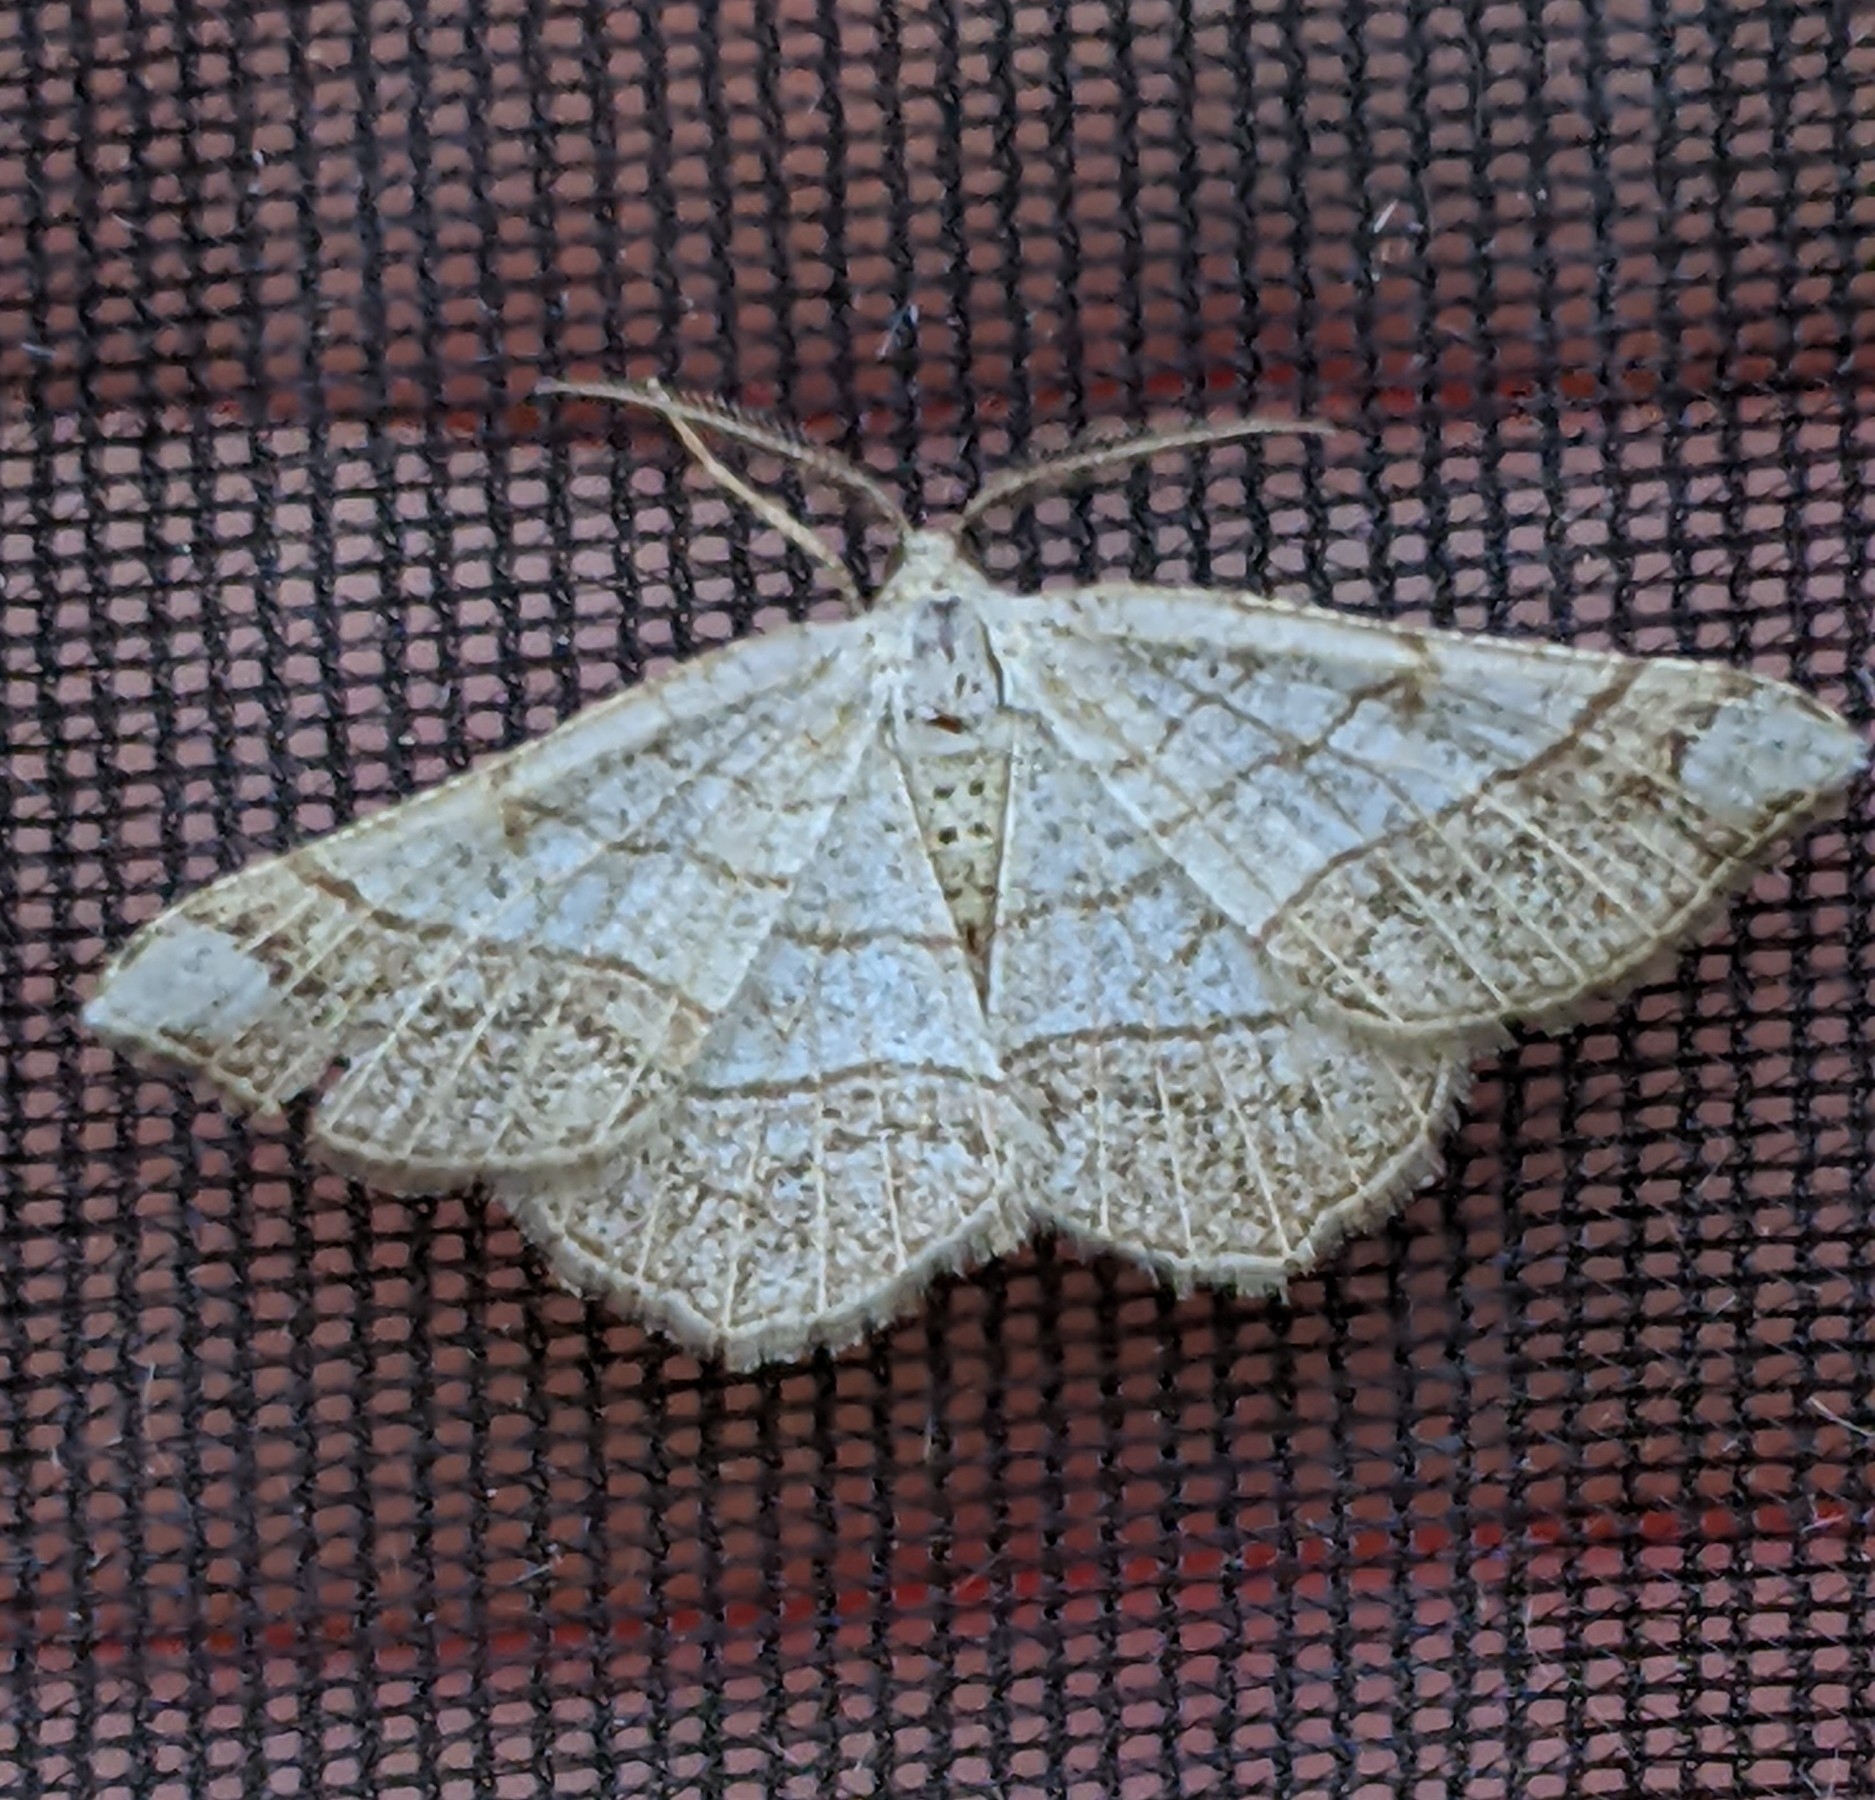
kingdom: Animalia
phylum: Arthropoda
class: Insecta
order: Lepidoptera
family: Geometridae
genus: Eumacaria
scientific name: Eumacaria madopata
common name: Brown-bordered geometer
